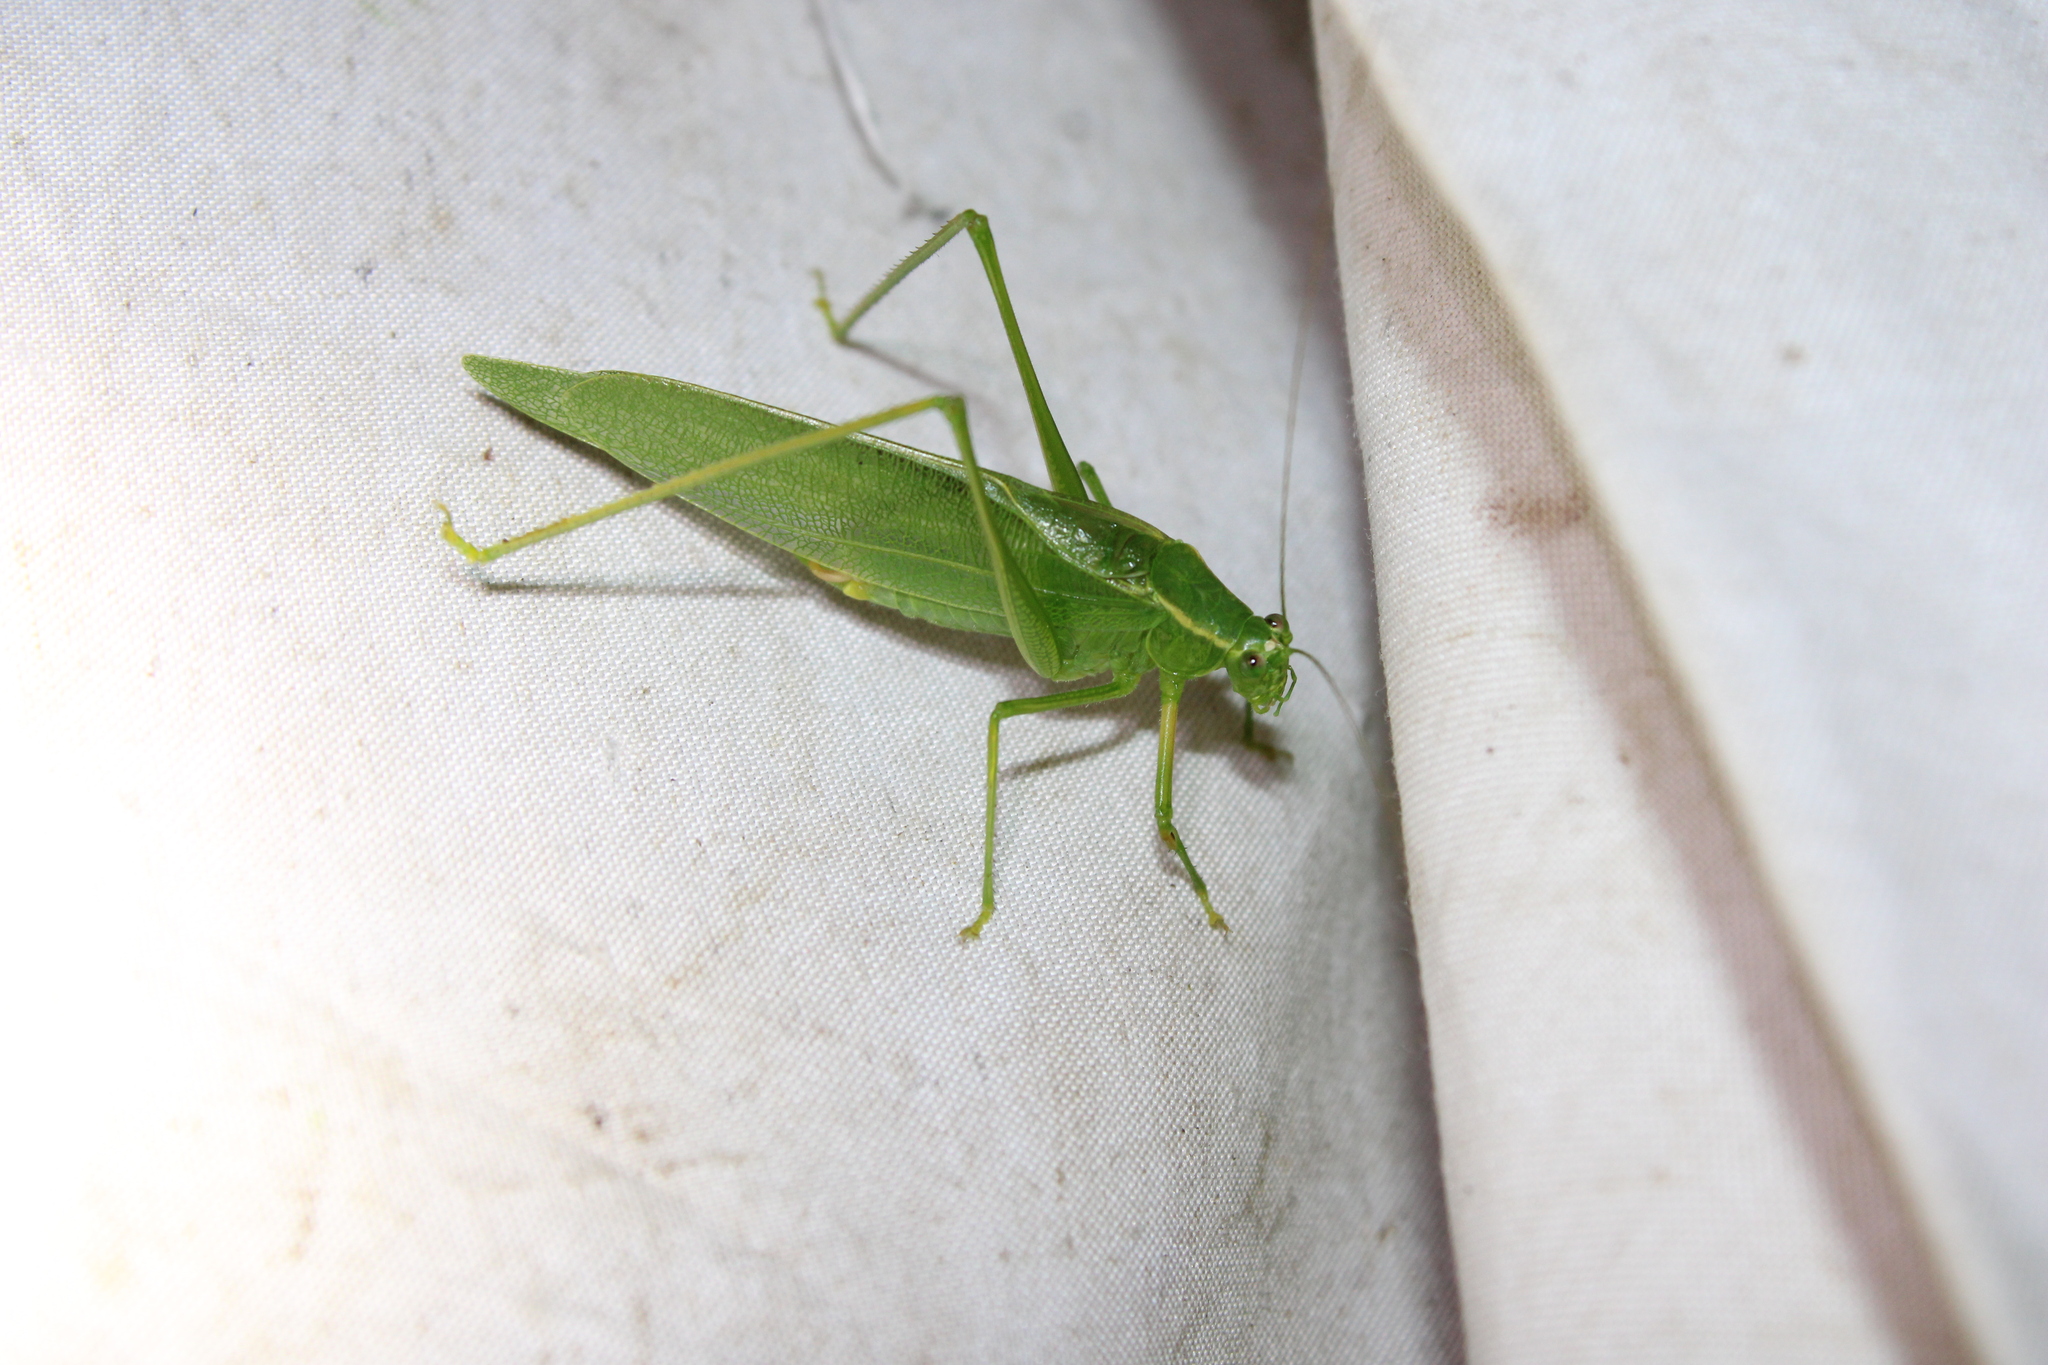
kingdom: Animalia
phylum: Arthropoda
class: Insecta
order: Orthoptera
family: Tettigoniidae
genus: Scudderia
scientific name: Scudderia septentrionalis
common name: Northern bush-katydid
